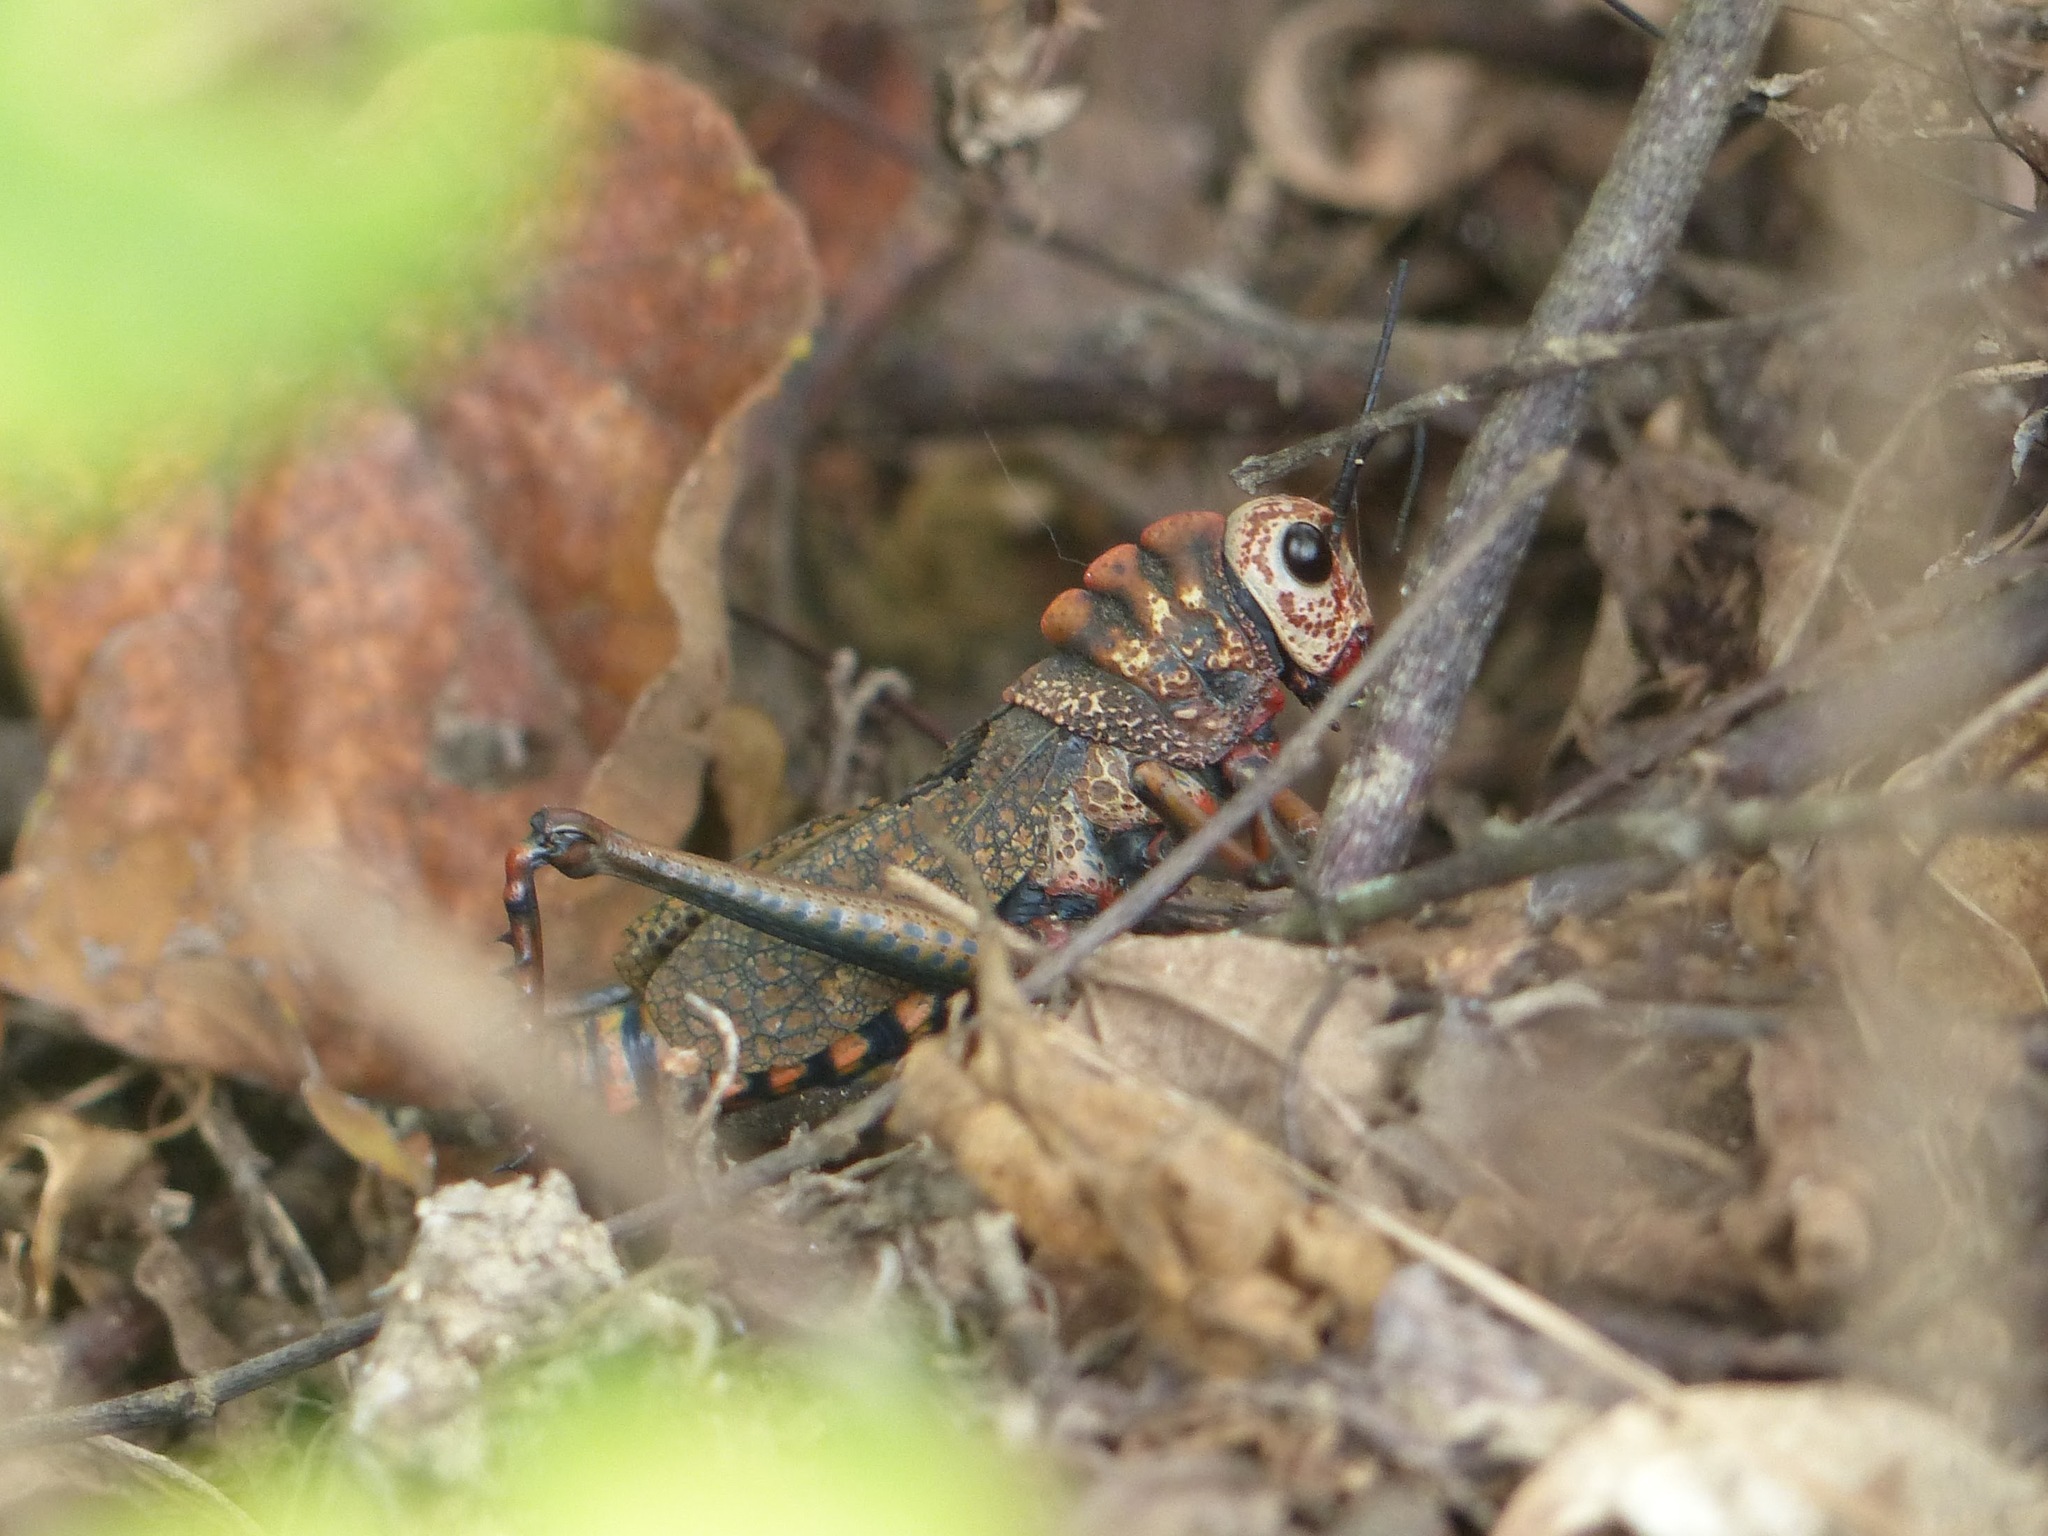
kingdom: Animalia
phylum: Arthropoda
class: Insecta
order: Orthoptera
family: Romaleidae
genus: Thrasyderes
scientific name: Thrasyderes leprosus
